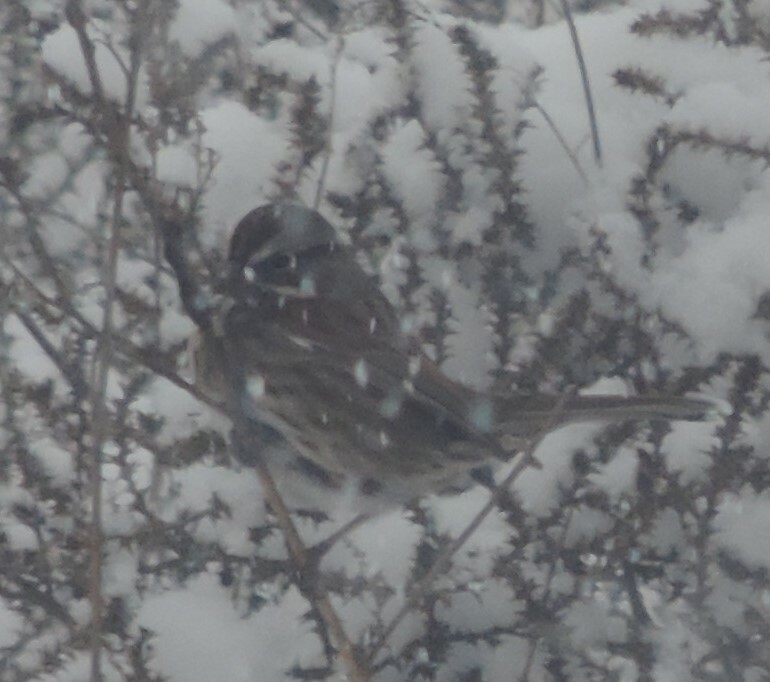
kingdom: Animalia
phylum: Chordata
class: Aves
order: Passeriformes
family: Passerellidae
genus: Melospiza
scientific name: Melospiza melodia
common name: Song sparrow
